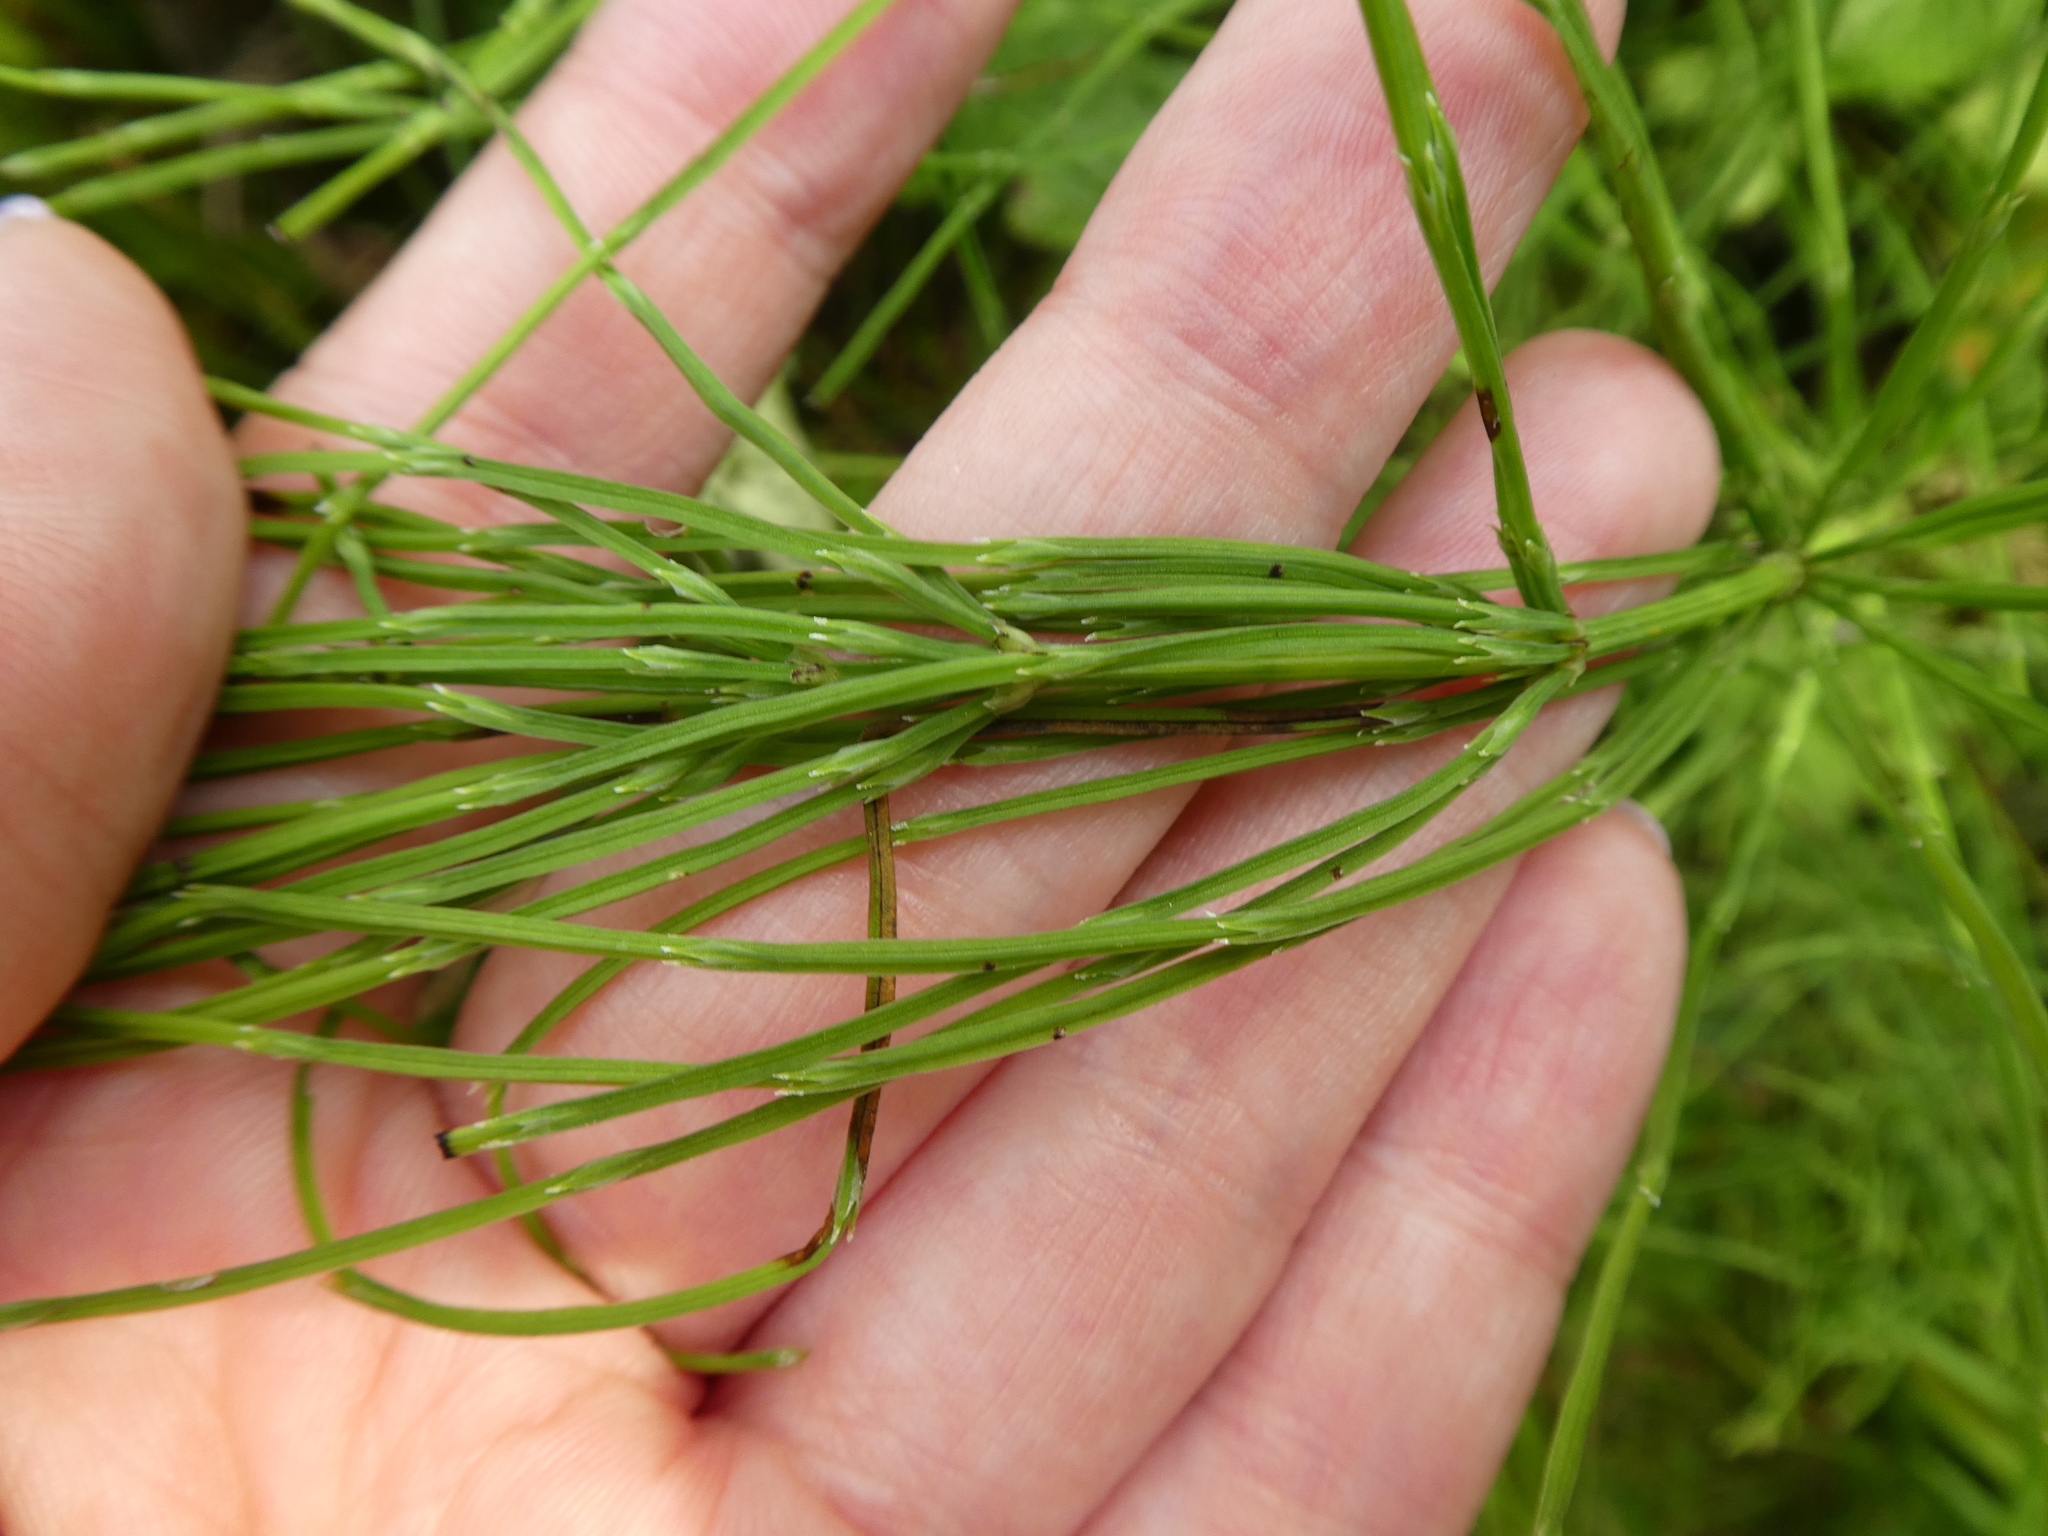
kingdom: Plantae
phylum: Tracheophyta
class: Polypodiopsida
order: Equisetales
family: Equisetaceae
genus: Equisetum
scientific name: Equisetum arvense
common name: Field horsetail
